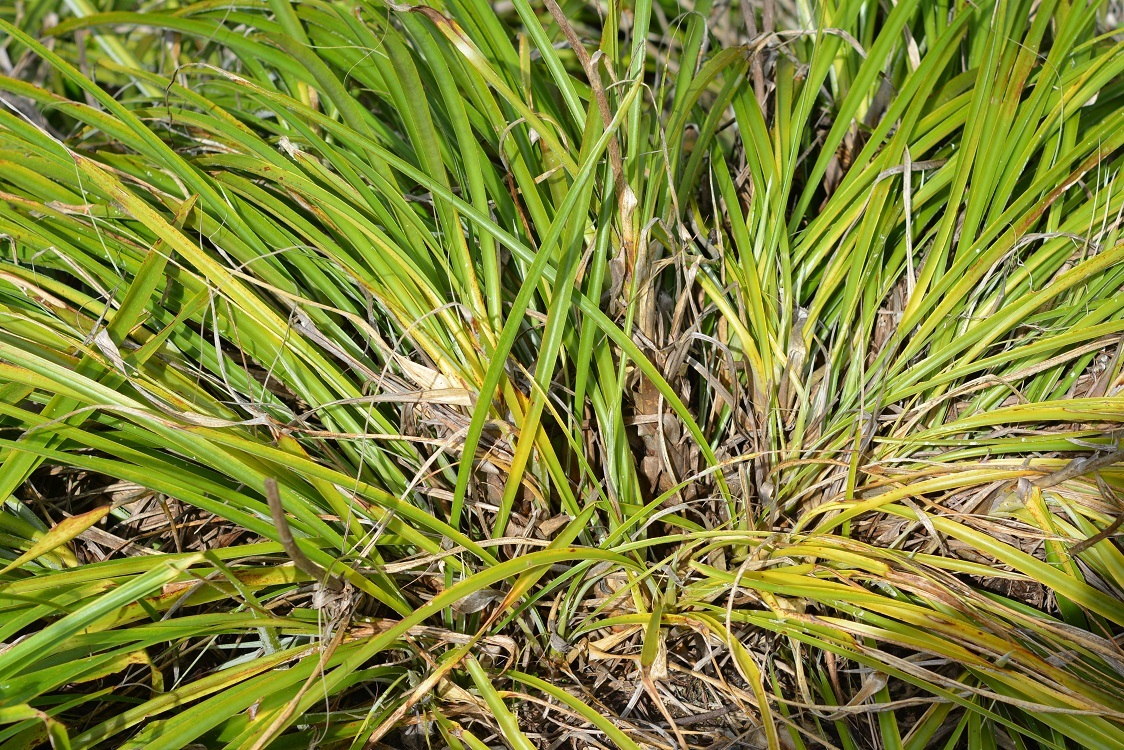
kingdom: Plantae
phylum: Tracheophyta
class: Liliopsida
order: Poales
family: Bromeliaceae
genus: Pitcairnia
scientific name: Pitcairnia breedlovei
